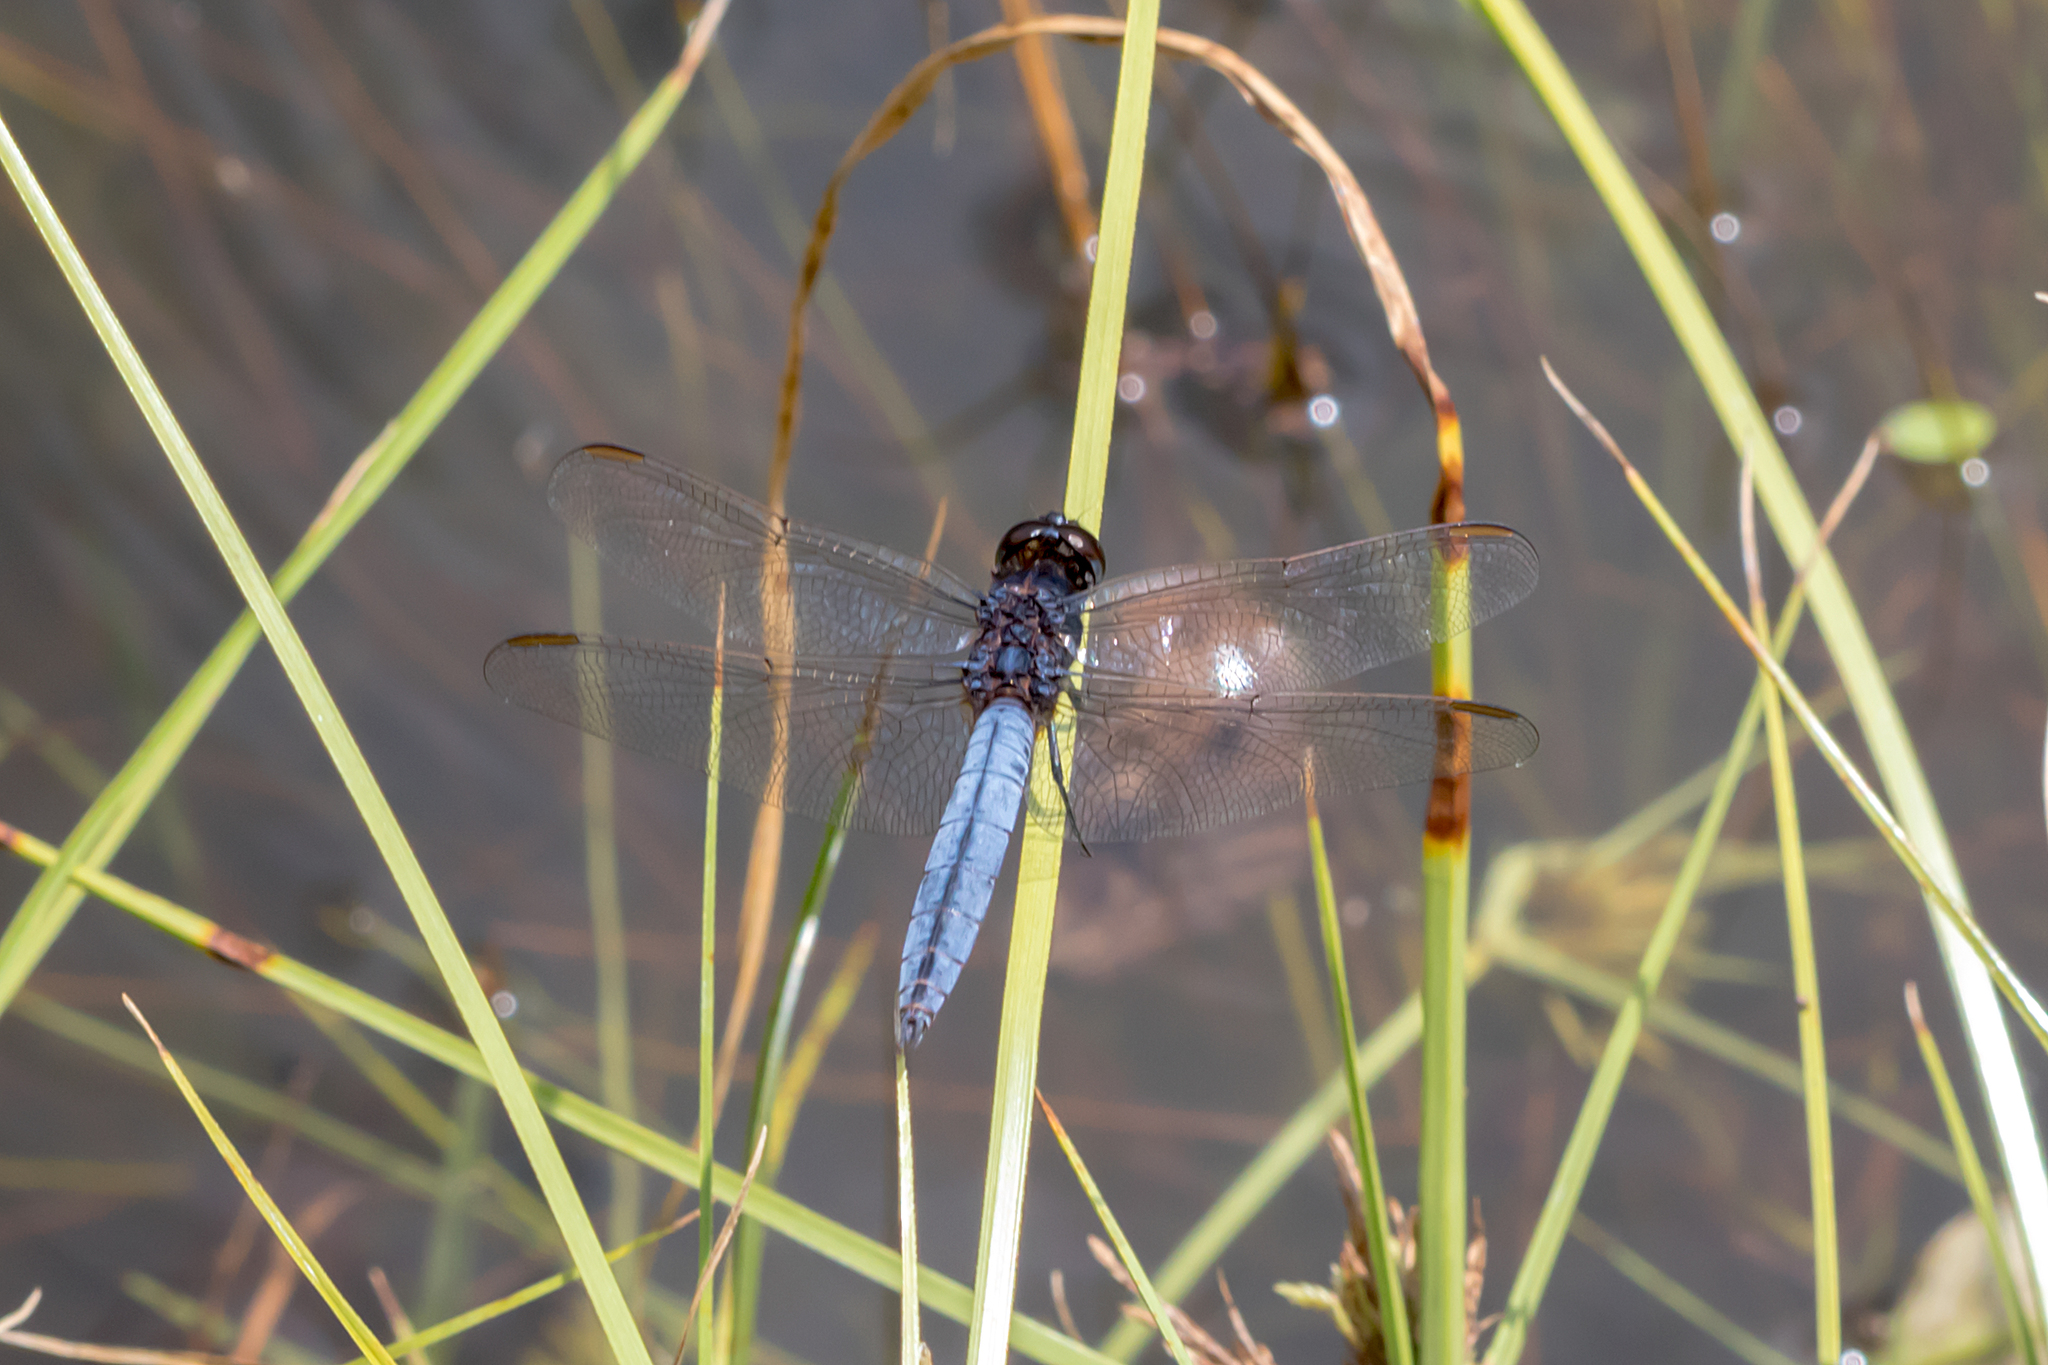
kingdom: Animalia
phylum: Arthropoda
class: Insecta
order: Odonata
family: Libellulidae
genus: Crocothemis
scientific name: Crocothemis nigrifrons
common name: Black-headed skimmer
